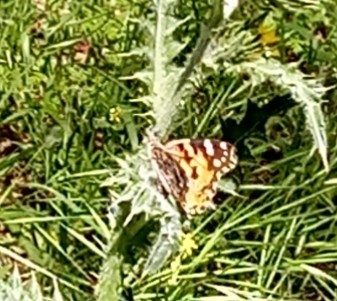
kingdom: Animalia
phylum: Arthropoda
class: Insecta
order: Lepidoptera
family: Nymphalidae
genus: Vanessa
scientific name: Vanessa cardui
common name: Painted lady
